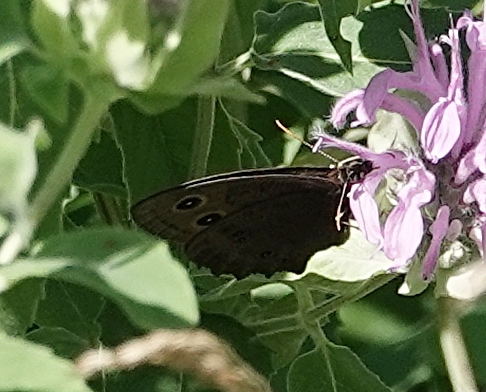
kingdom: Animalia
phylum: Arthropoda
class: Insecta
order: Lepidoptera
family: Nymphalidae
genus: Cercyonis
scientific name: Cercyonis pegala
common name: Common wood-nymph
